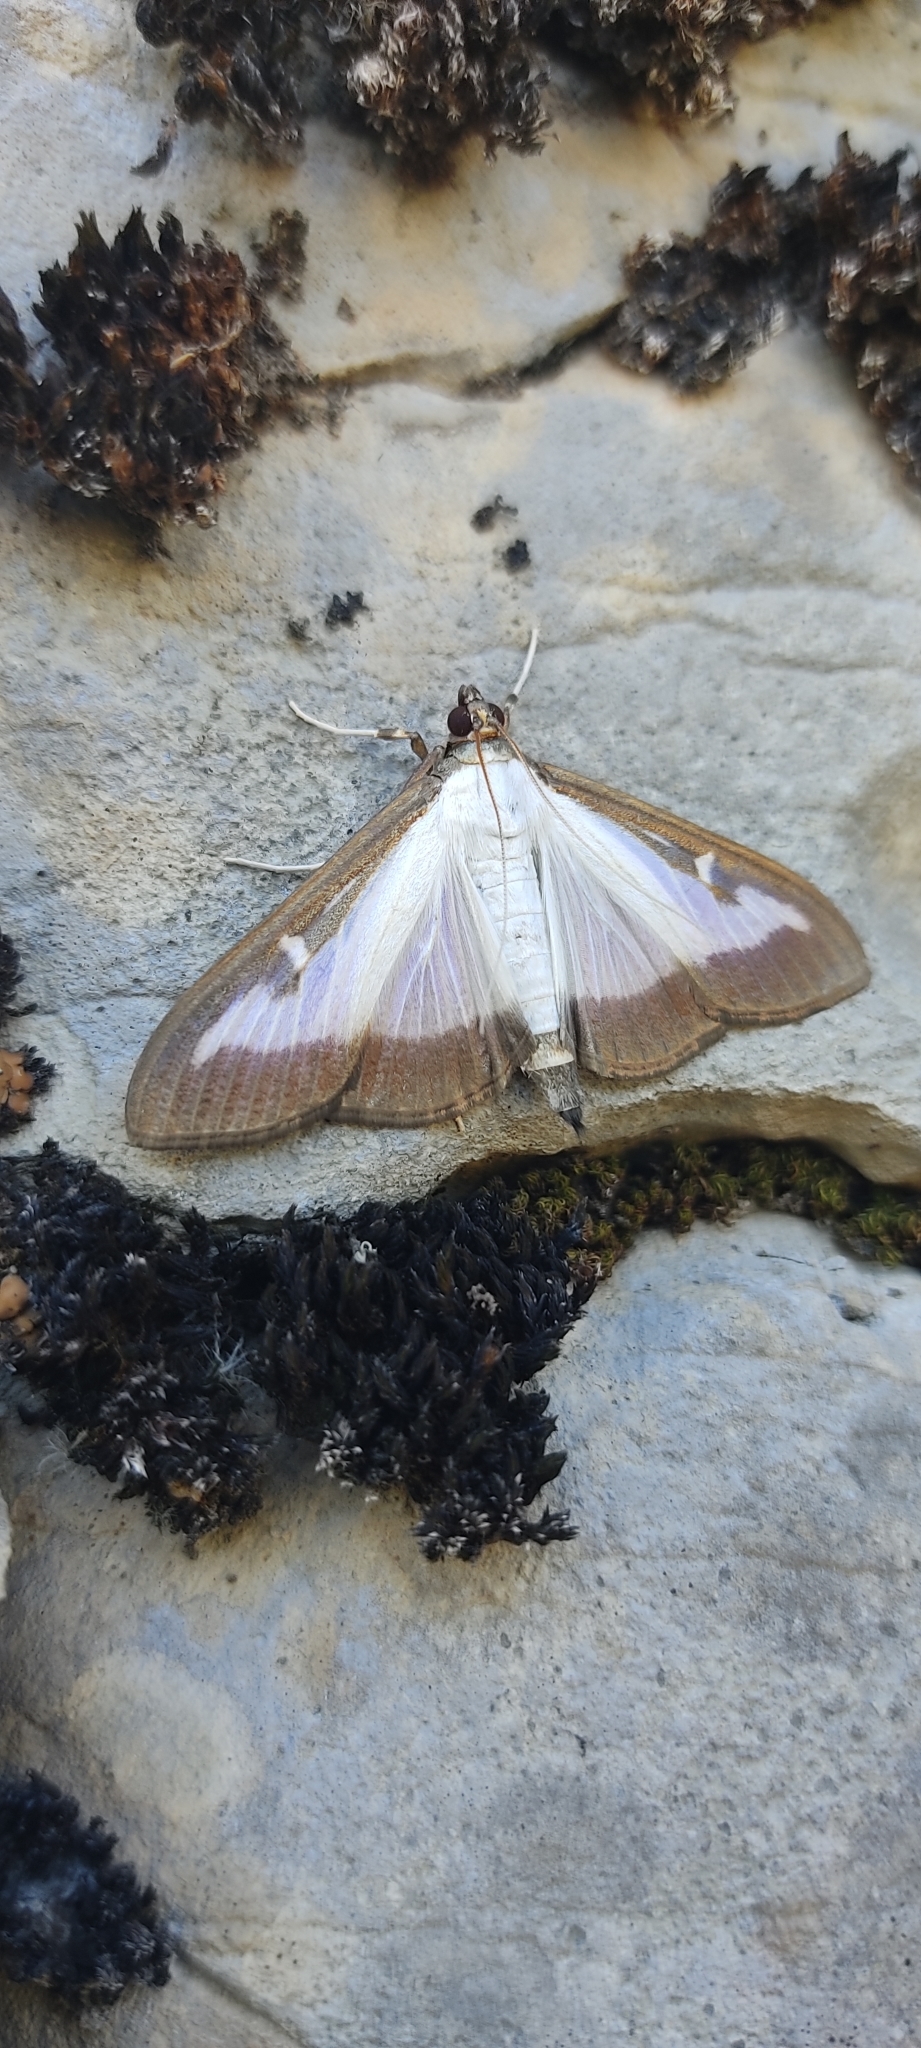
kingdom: Animalia
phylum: Arthropoda
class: Insecta
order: Lepidoptera
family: Crambidae
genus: Cydalima
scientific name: Cydalima perspectalis
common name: Box tree moth
